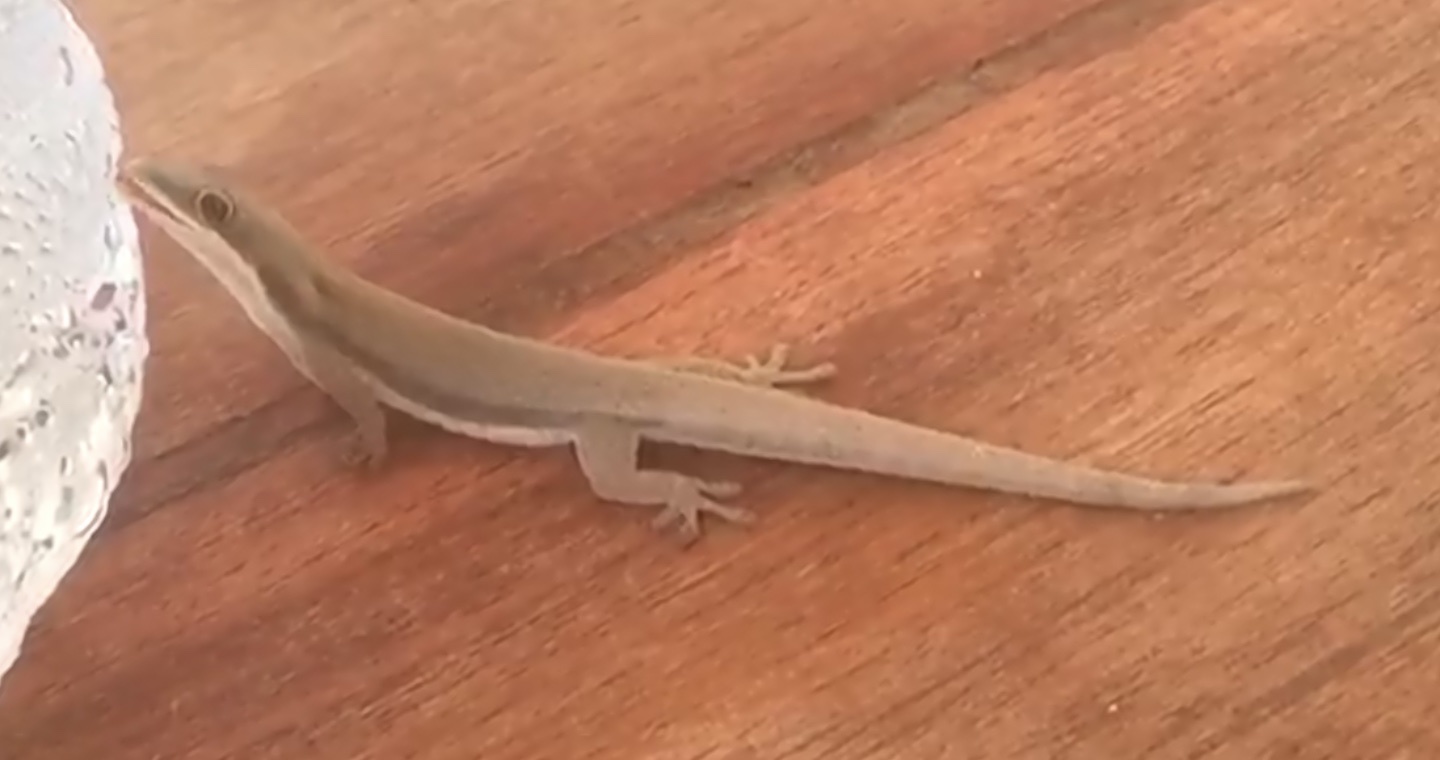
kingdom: Animalia
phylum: Chordata
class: Squamata
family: Gekkonidae
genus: Phelsuma
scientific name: Phelsuma modesta
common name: Modest day gecko
